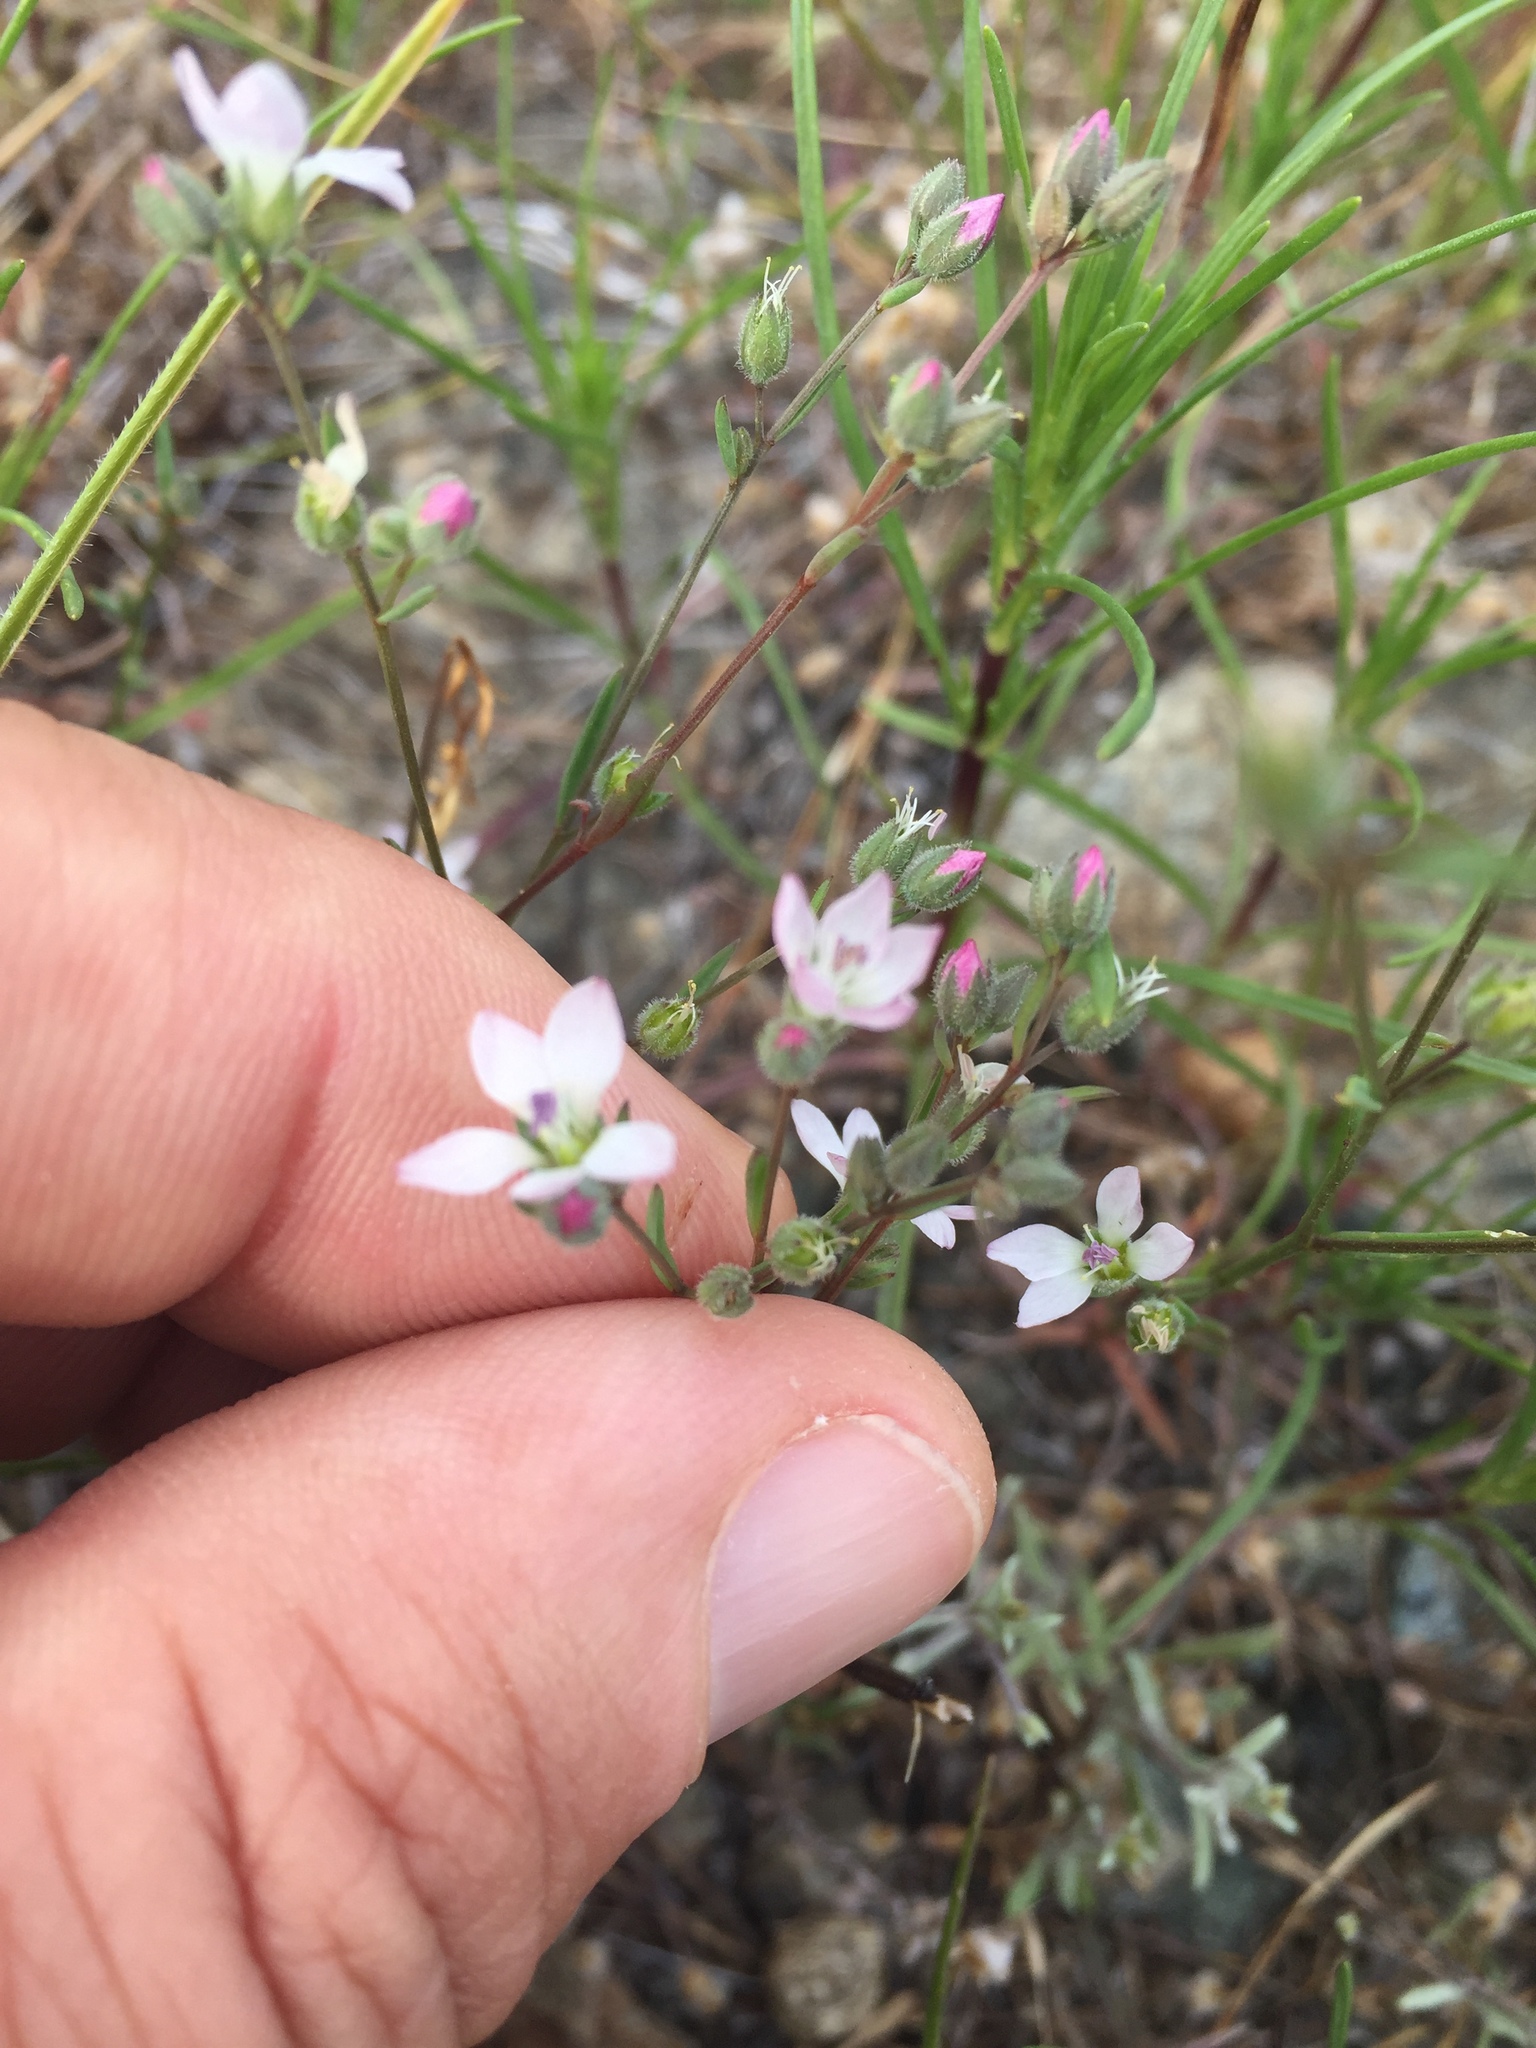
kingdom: Plantae
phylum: Tracheophyta
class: Magnoliopsida
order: Malpighiales
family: Linaceae
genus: Hesperolinon
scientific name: Hesperolinon congestum
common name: Marin dwarf-flax
